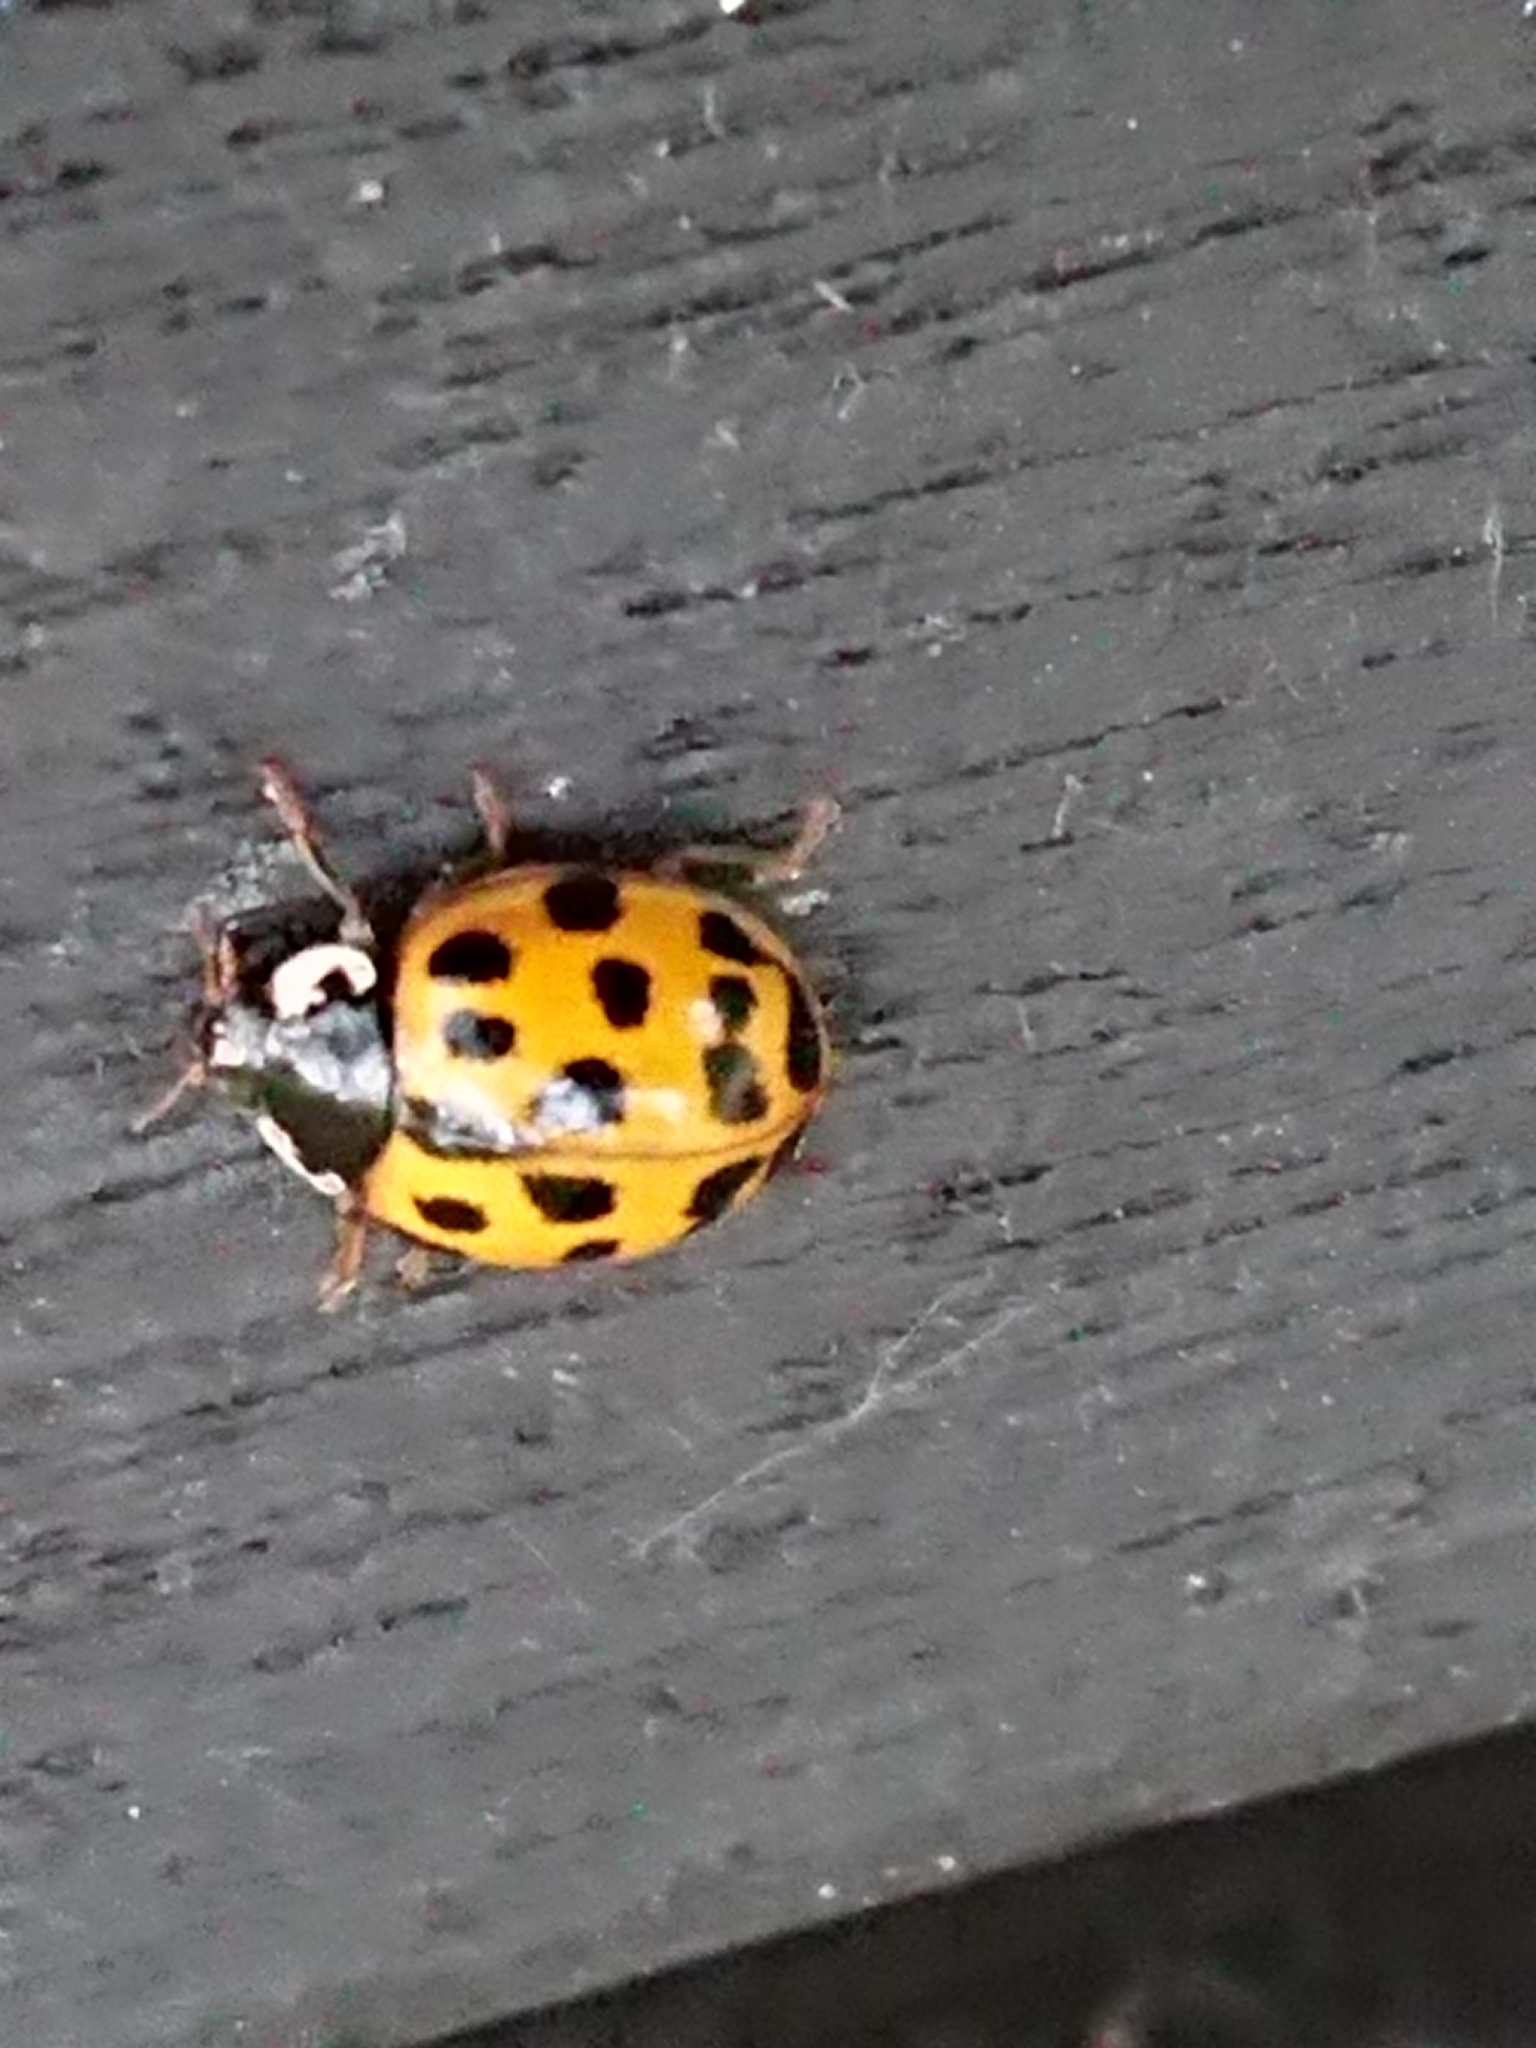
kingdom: Animalia
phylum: Arthropoda
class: Insecta
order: Coleoptera
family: Coccinellidae
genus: Harmonia
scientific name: Harmonia axyridis
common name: Harlequin ladybird
